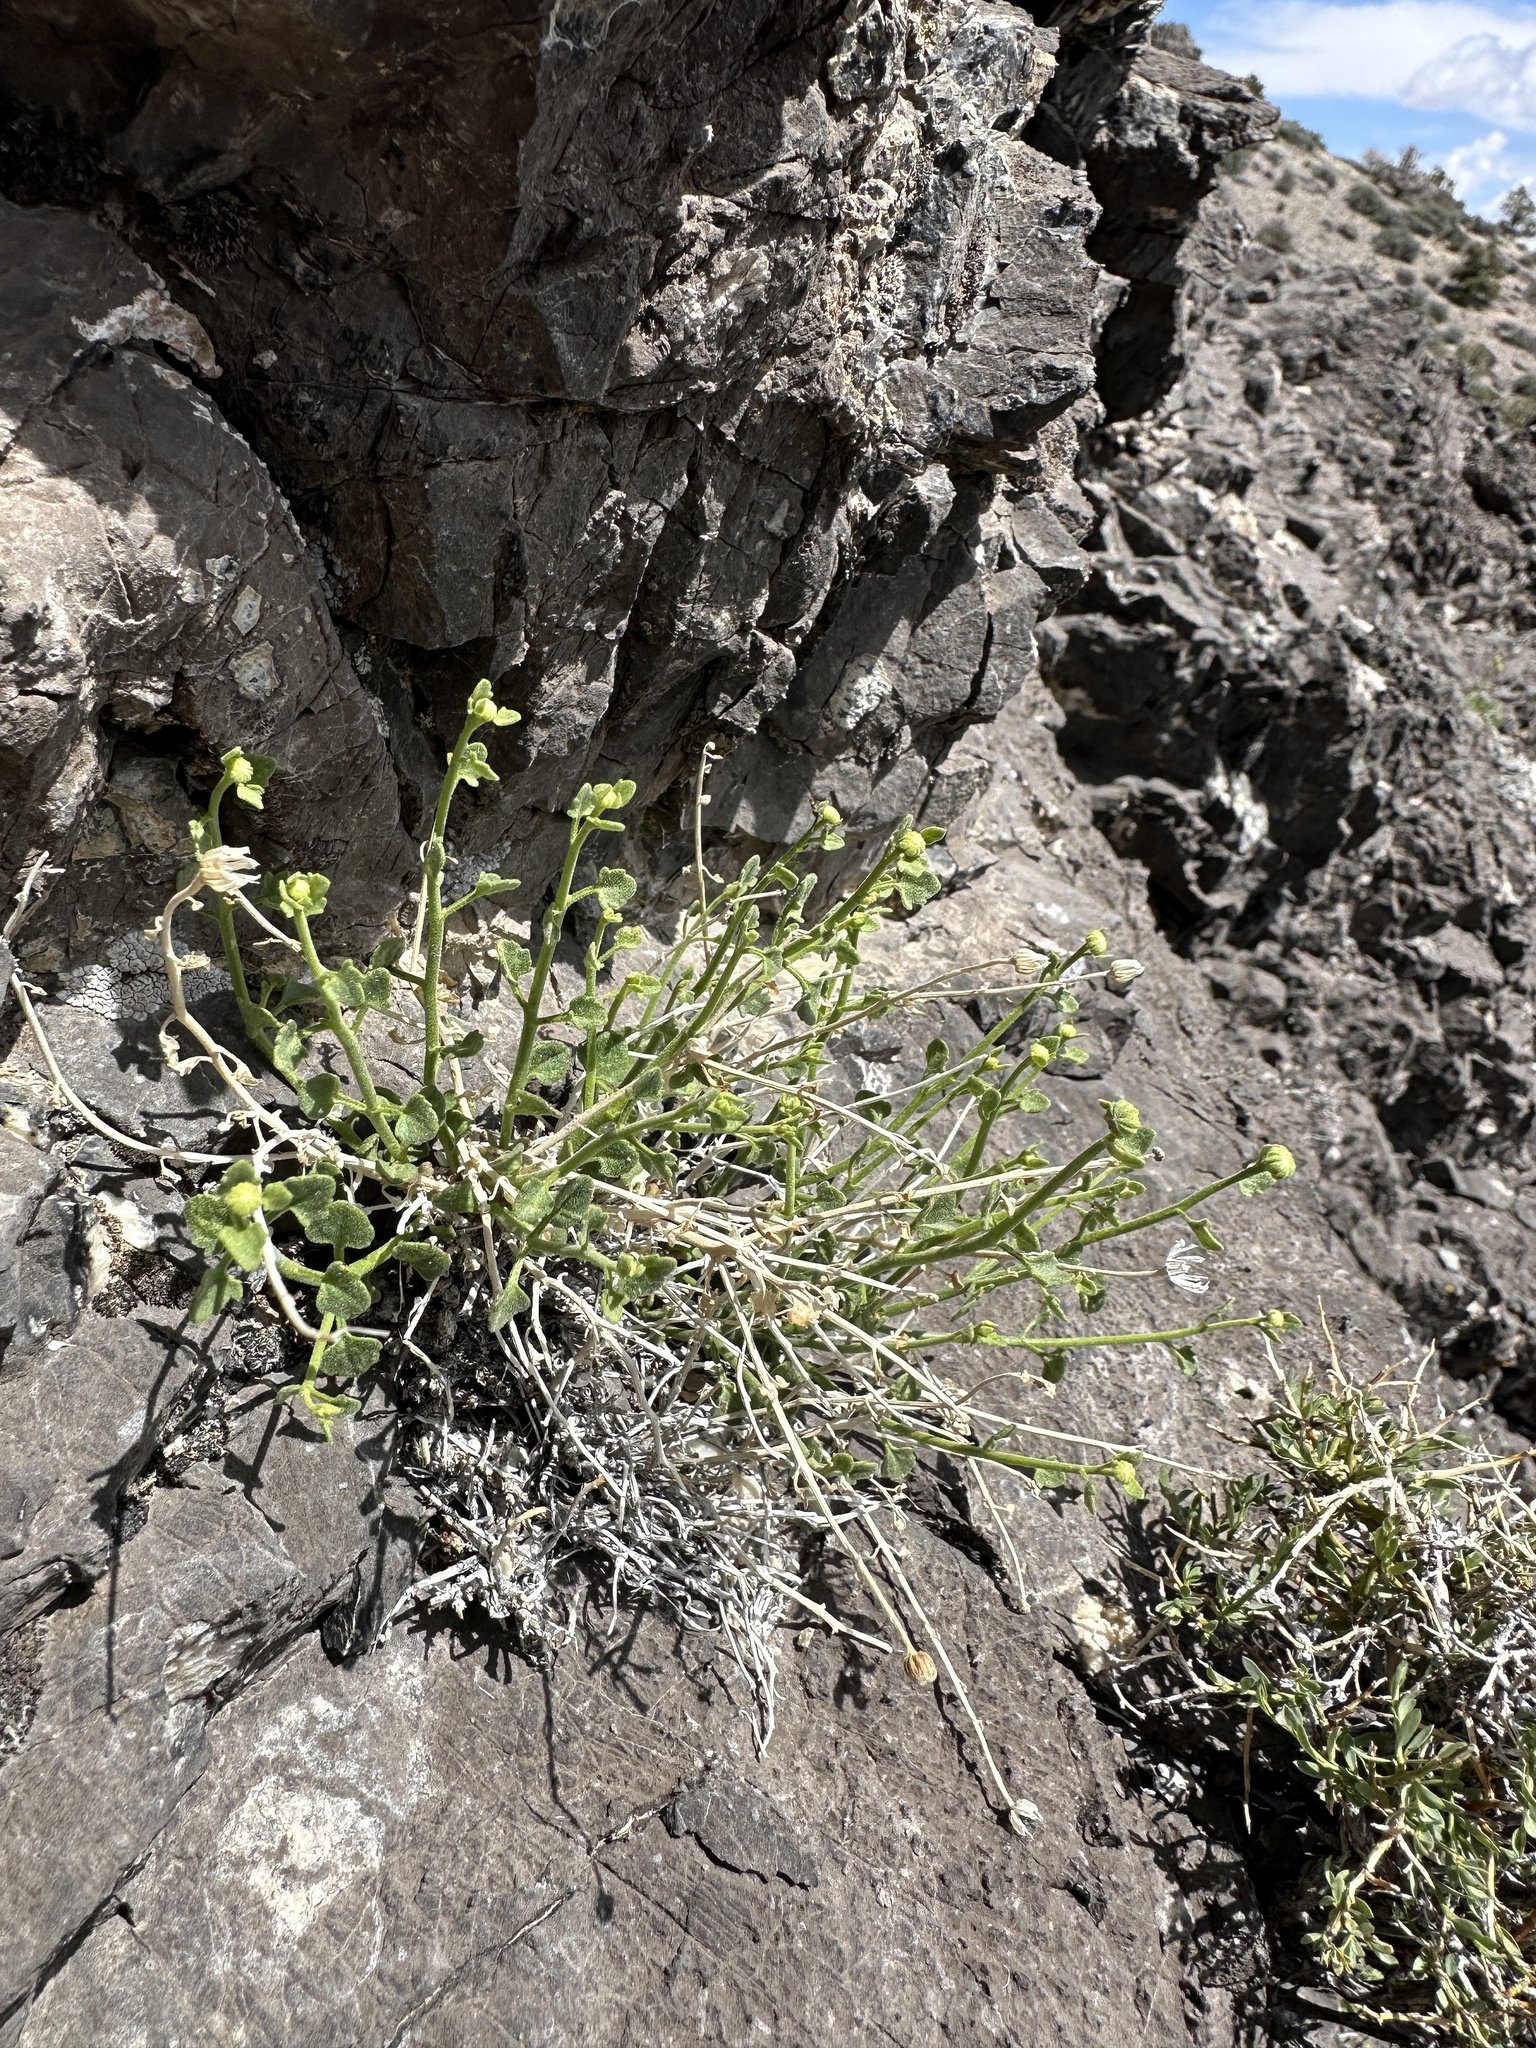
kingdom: Plantae
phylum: Tracheophyta
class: Magnoliopsida
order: Asterales
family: Asteraceae
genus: Laphamia
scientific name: Laphamia stansburyi
